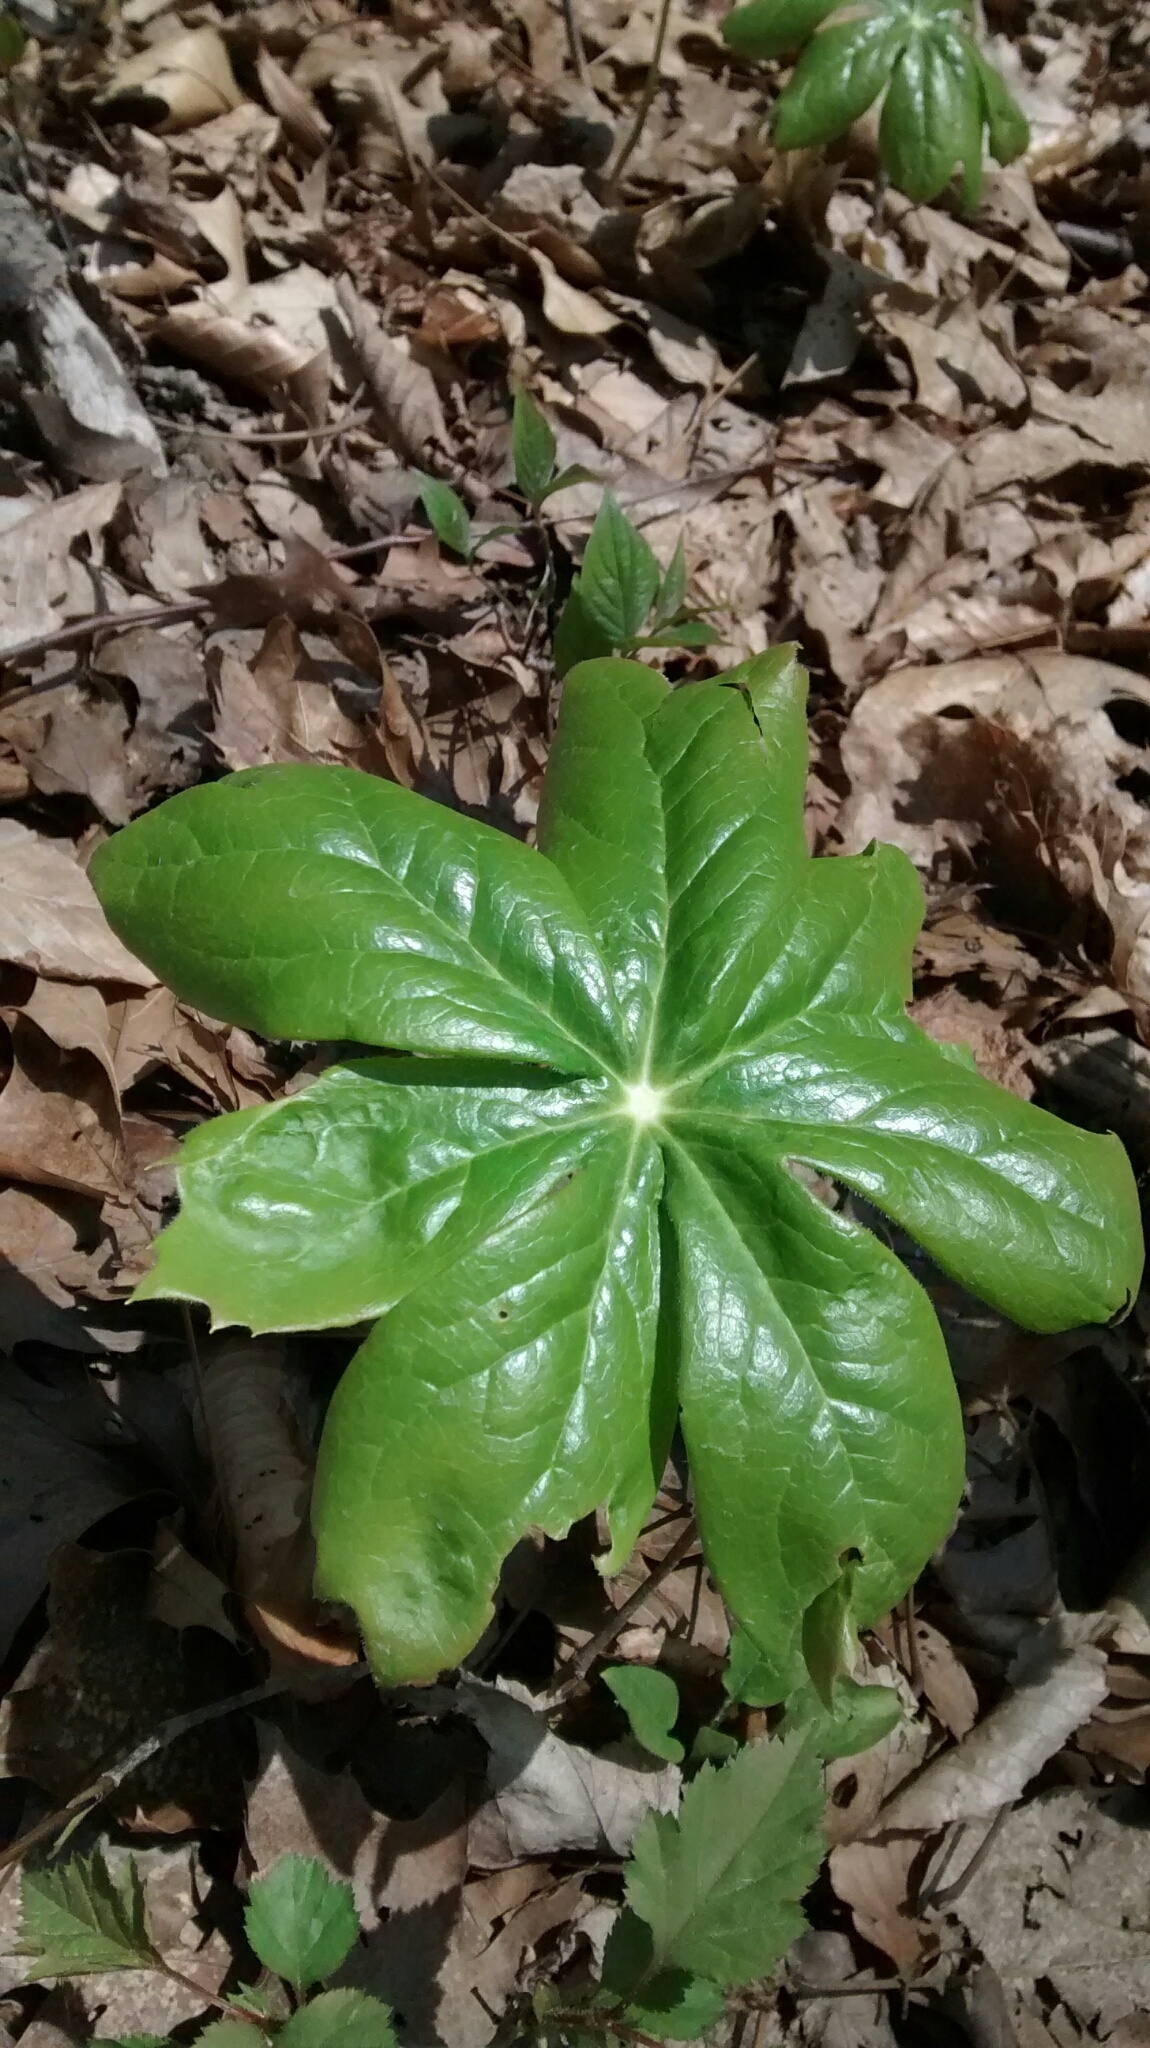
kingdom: Plantae
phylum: Tracheophyta
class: Magnoliopsida
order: Ranunculales
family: Berberidaceae
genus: Podophyllum
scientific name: Podophyllum peltatum
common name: Wild mandrake
